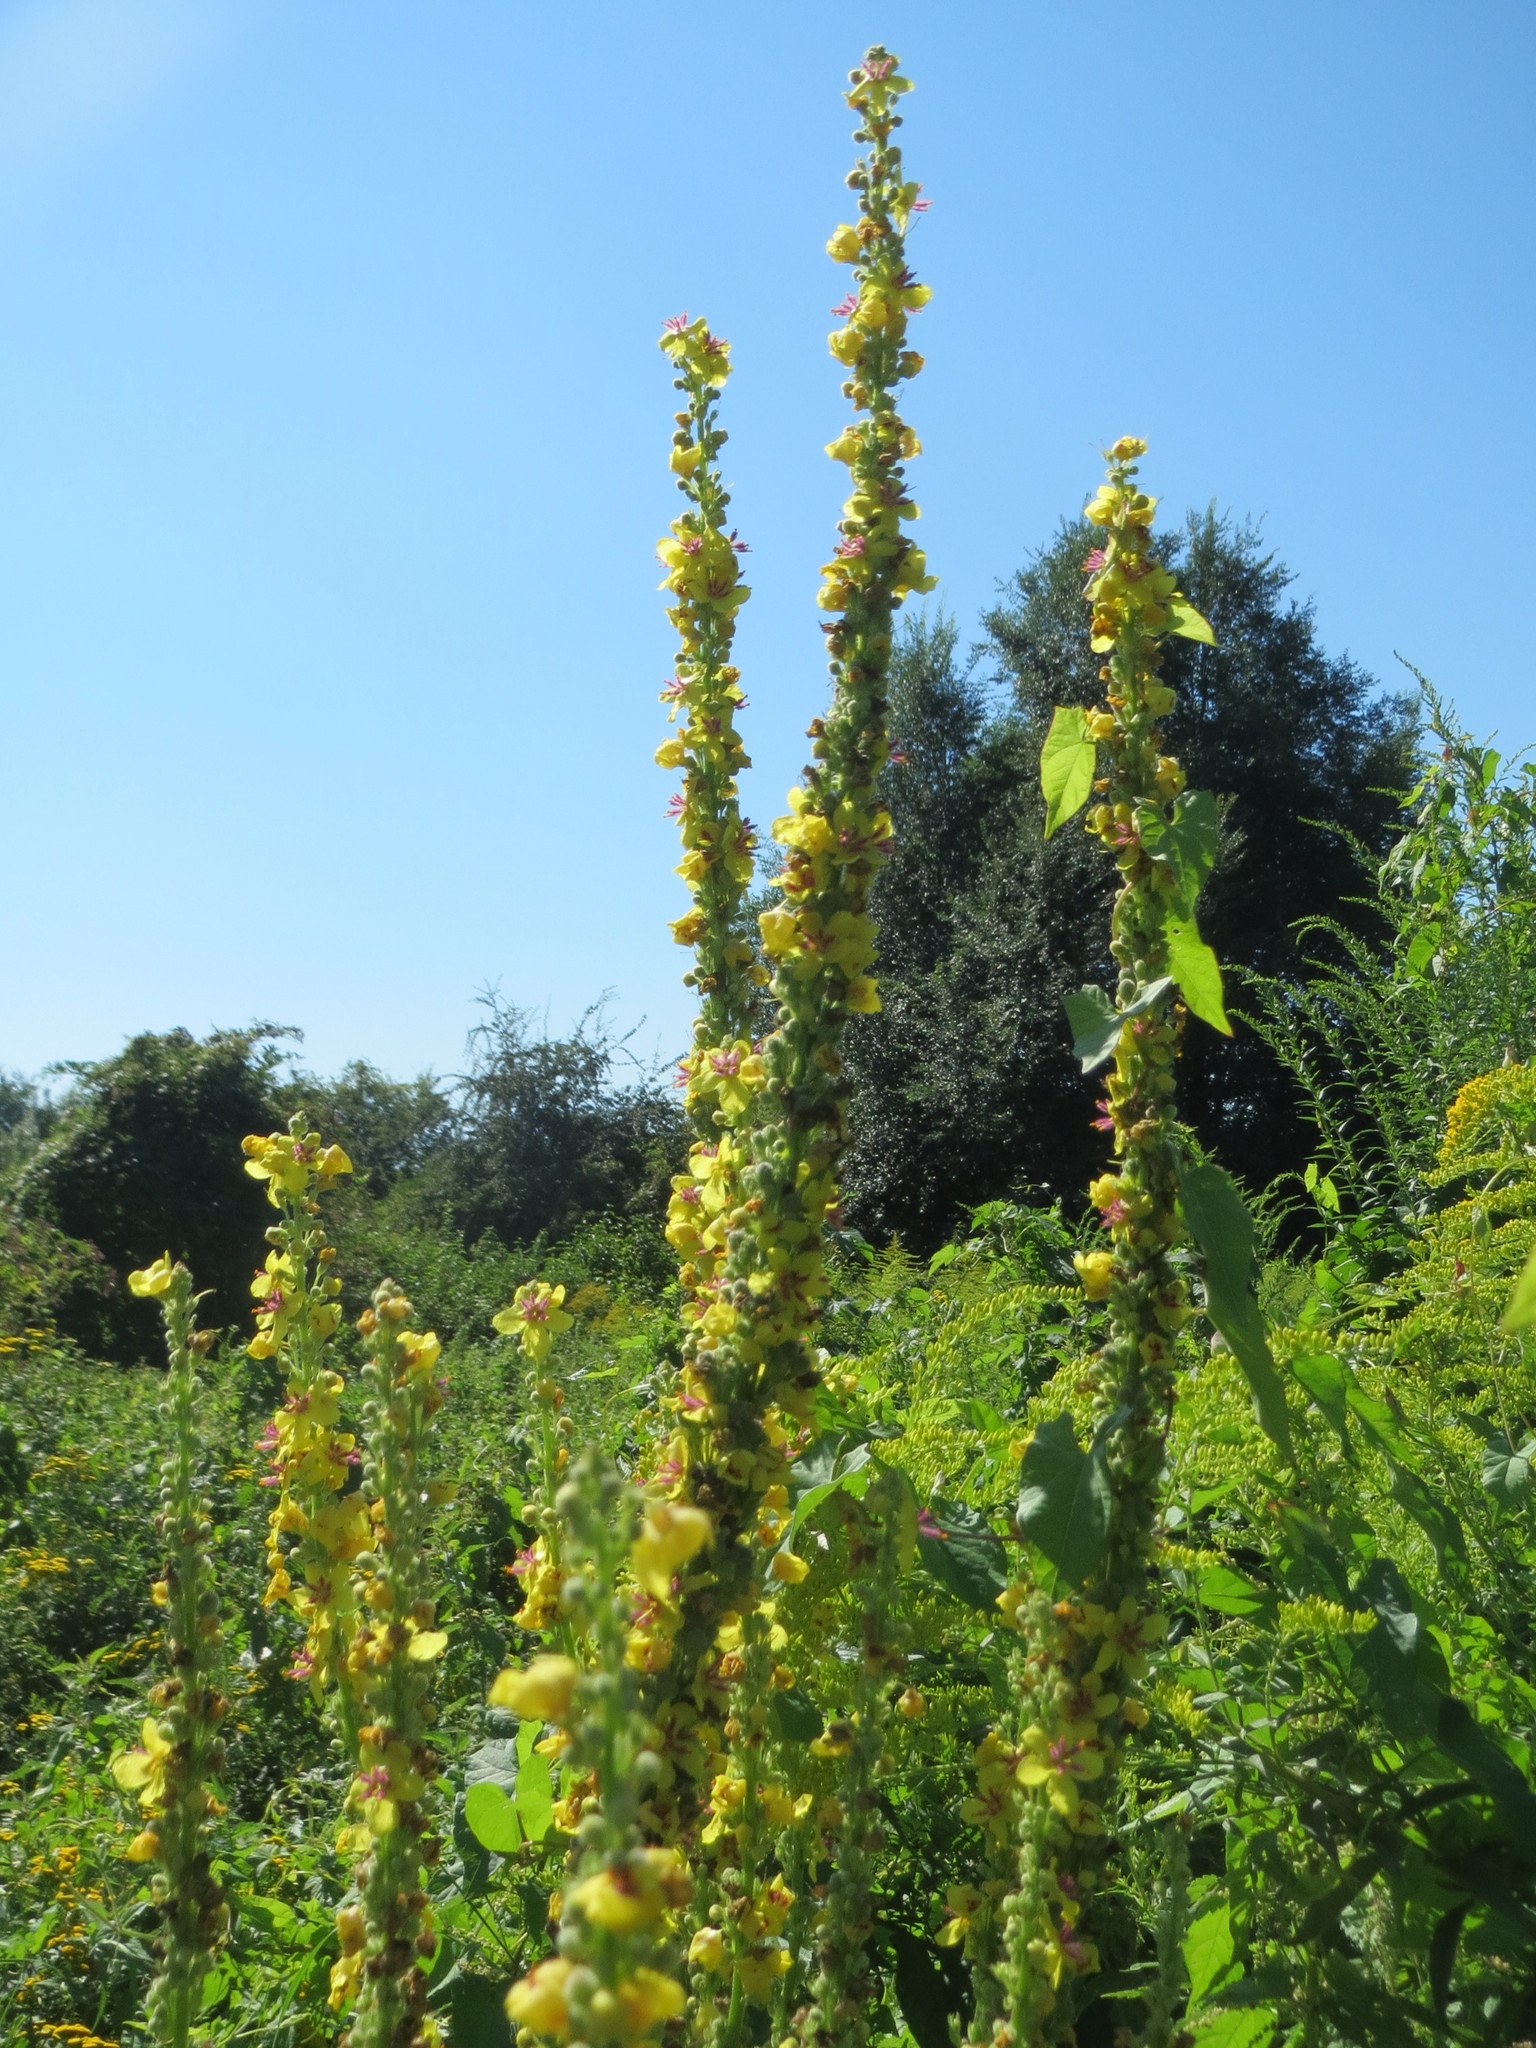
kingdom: Plantae
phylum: Tracheophyta
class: Magnoliopsida
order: Lamiales
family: Scrophulariaceae
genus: Verbascum
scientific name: Verbascum nigrum
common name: Dark mullein
